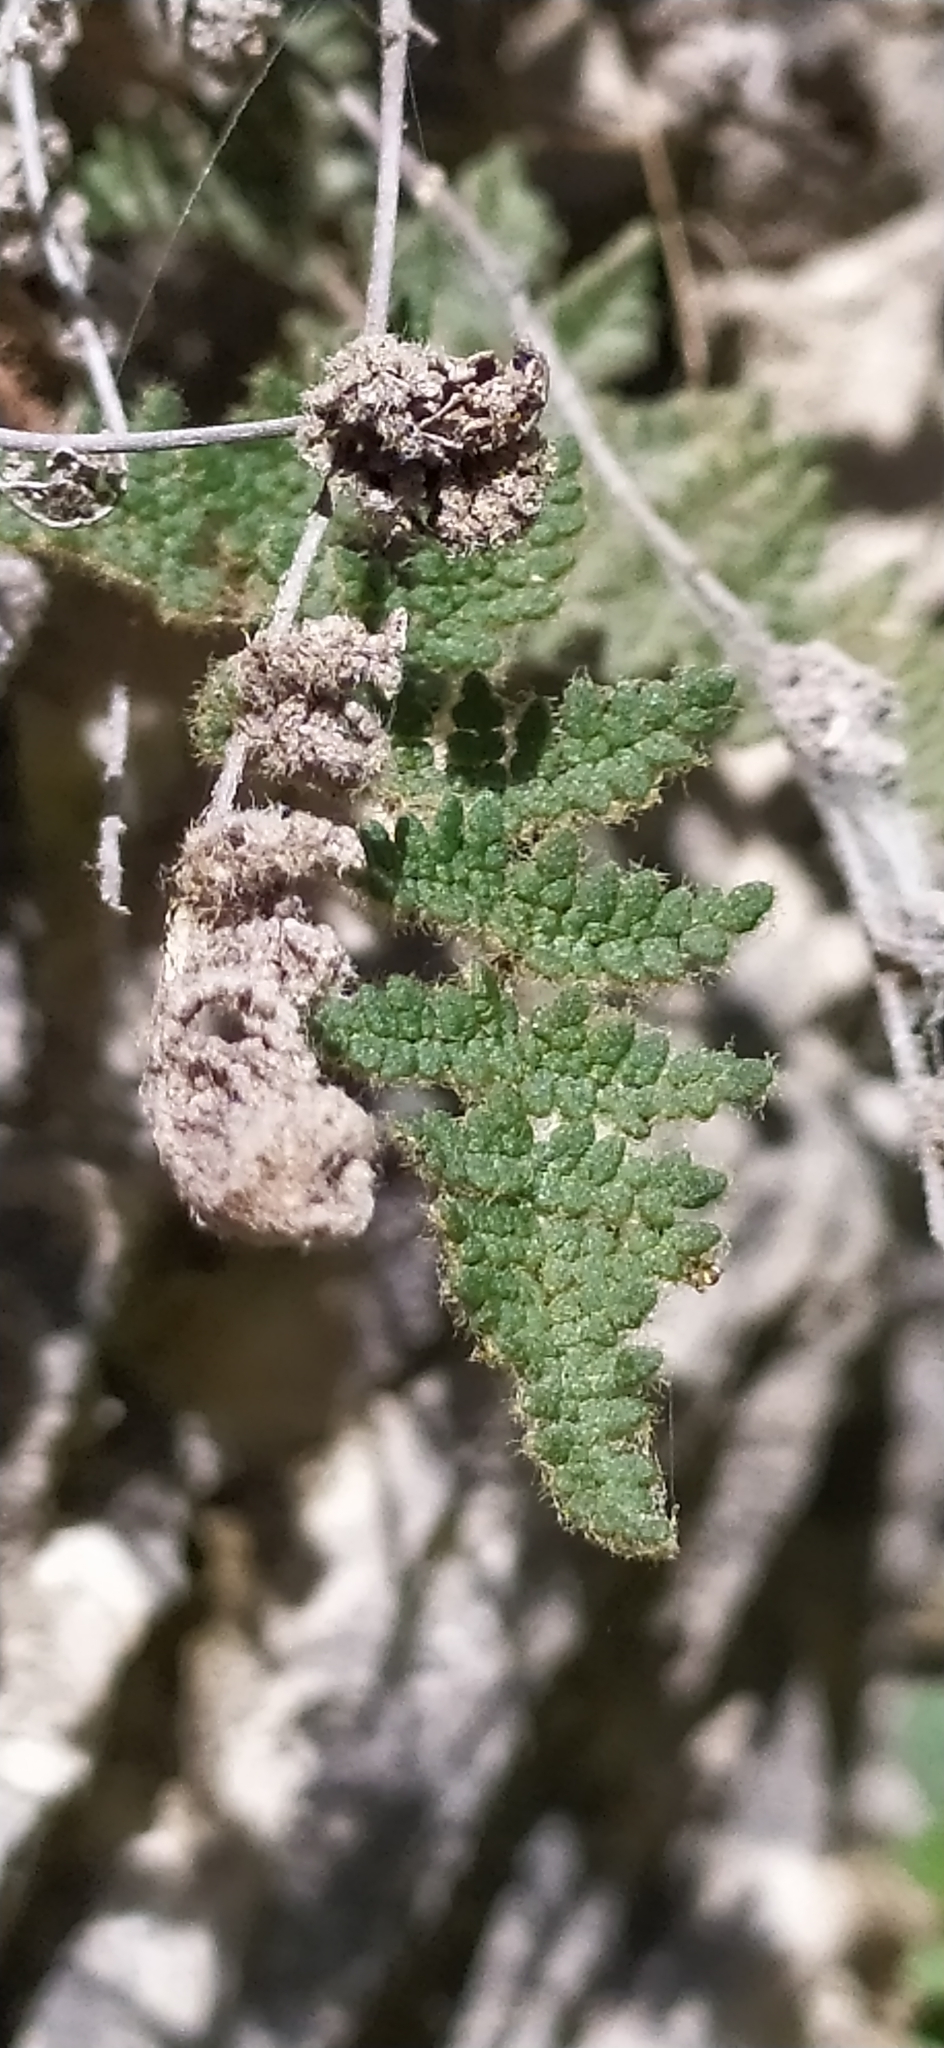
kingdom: Plantae
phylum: Tracheophyta
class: Polypodiopsida
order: Polypodiales
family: Pteridaceae
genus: Oeosporangium
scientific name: Oeosporangium persicum
